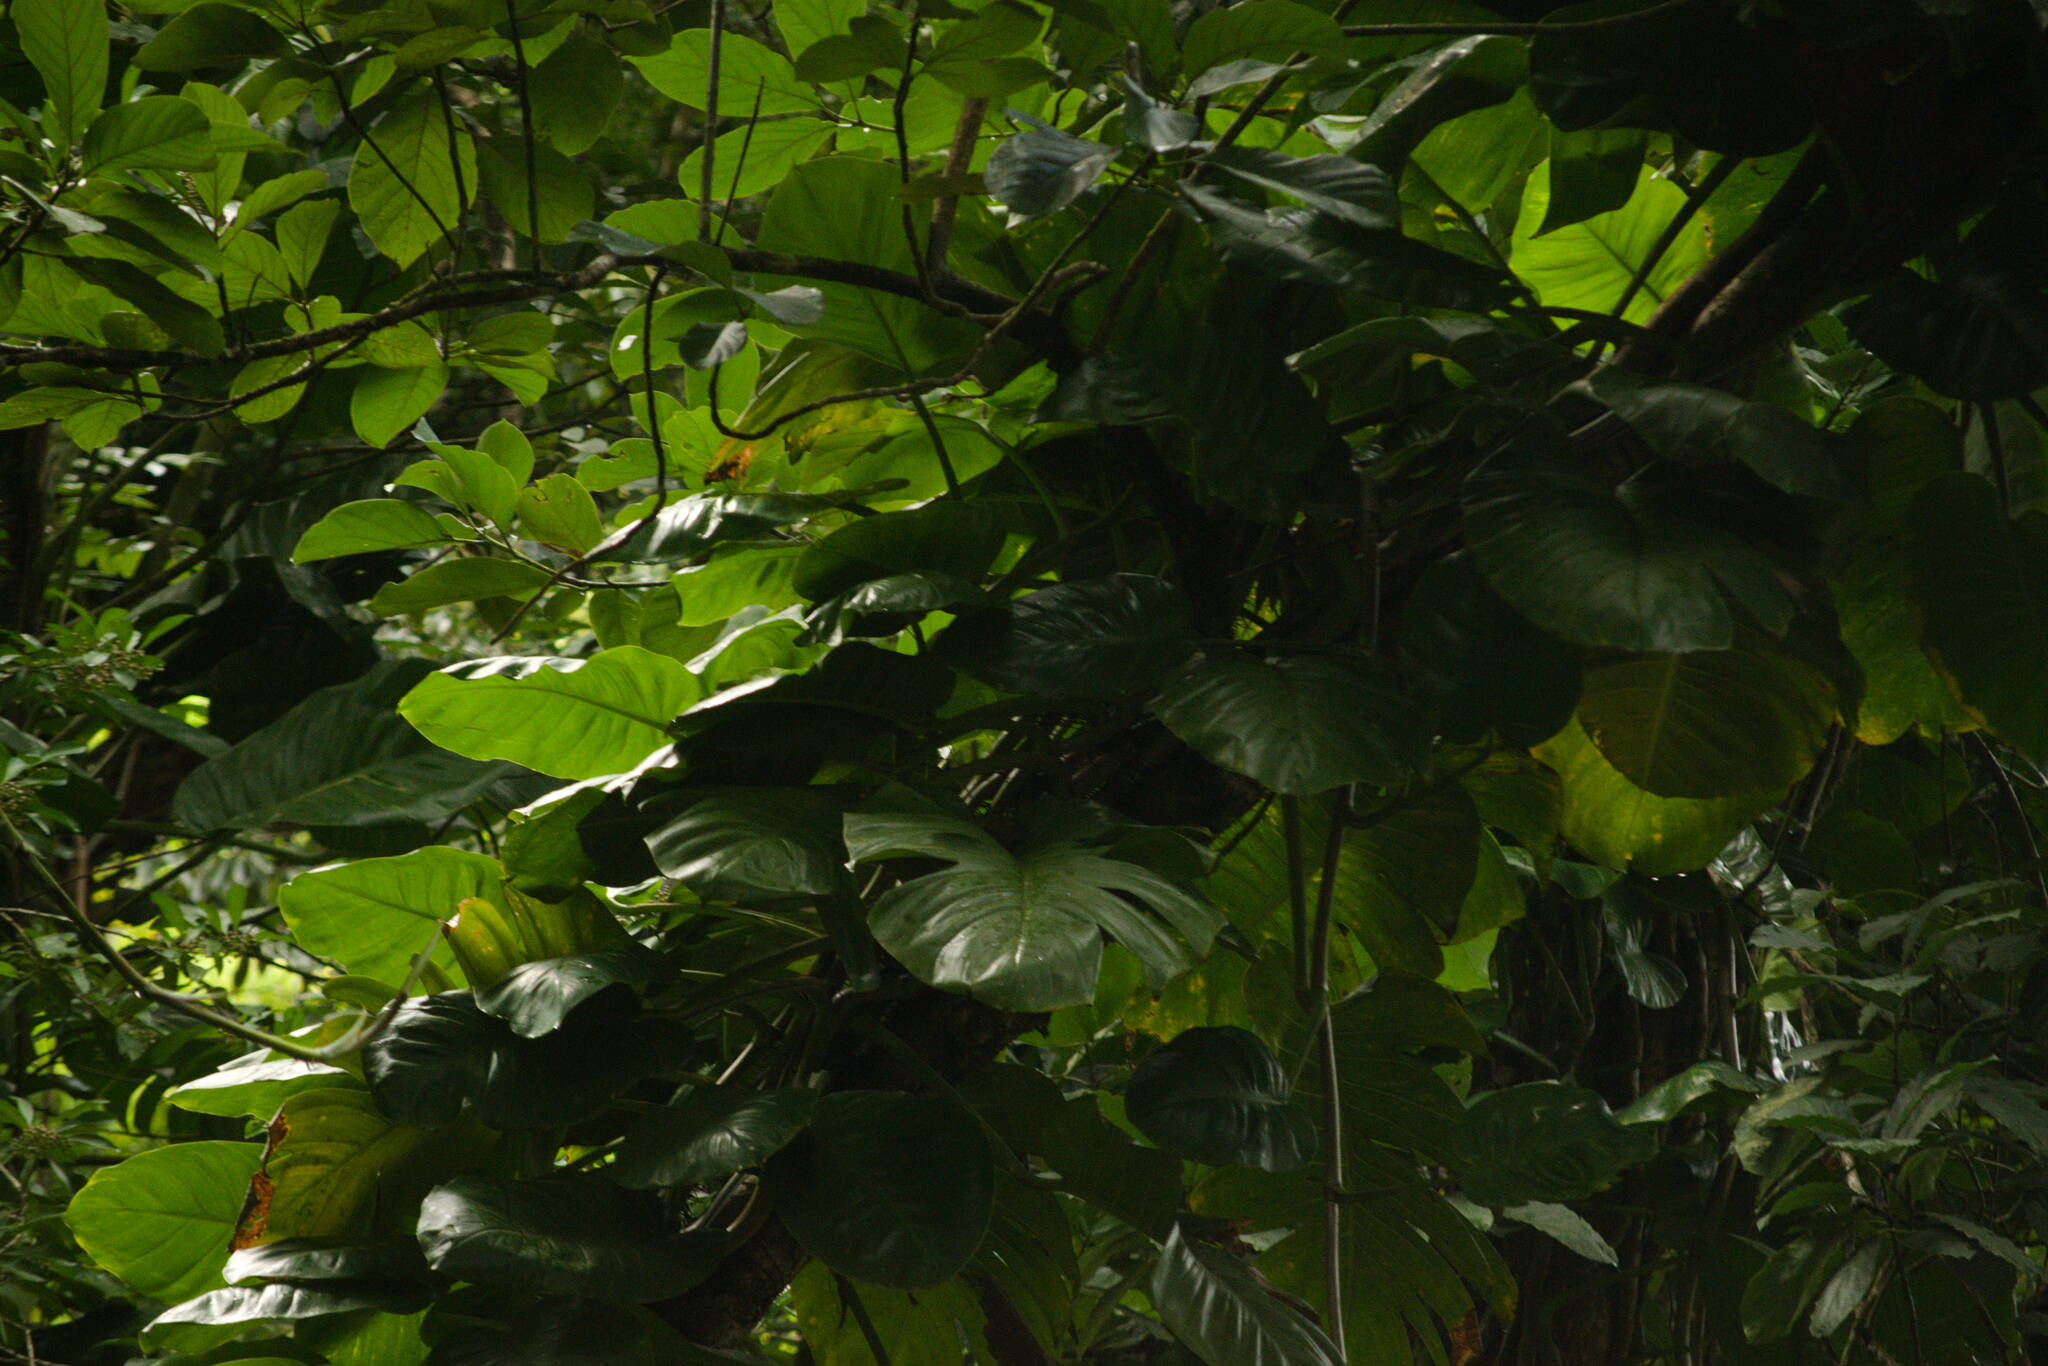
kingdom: Plantae
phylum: Tracheophyta
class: Liliopsida
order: Alismatales
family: Araceae
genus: Epipremnum
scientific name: Epipremnum aureum
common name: Golden hunter's-robe
